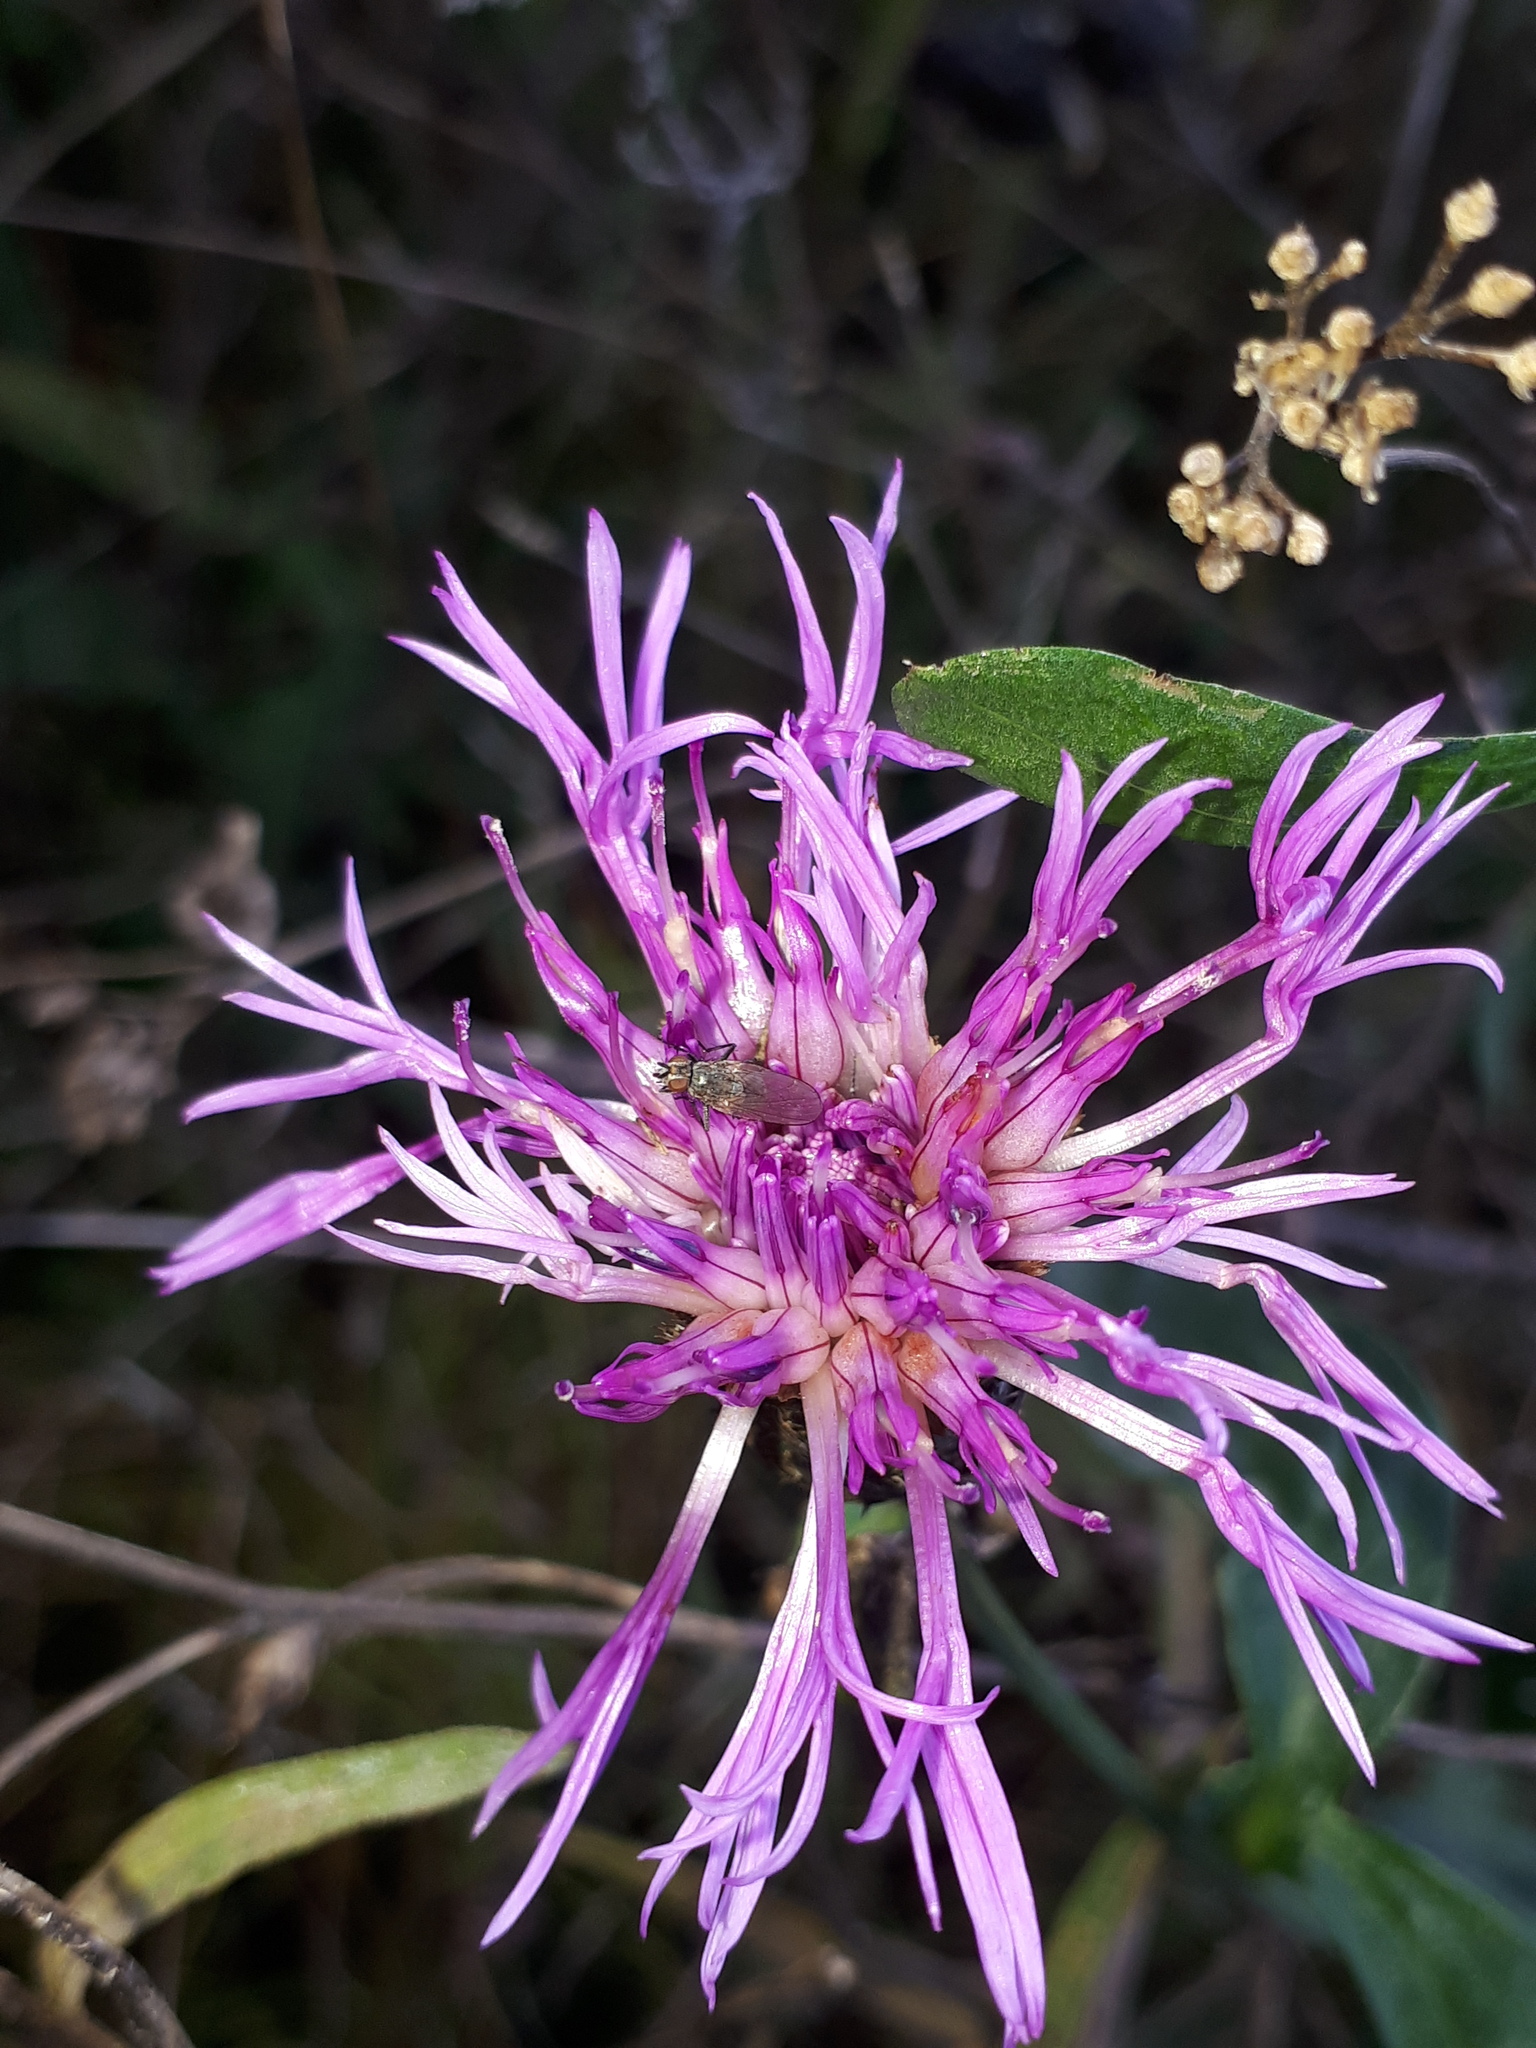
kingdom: Plantae
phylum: Tracheophyta
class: Magnoliopsida
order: Asterales
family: Asteraceae
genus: Centaurea
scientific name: Centaurea scabiosa
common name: Greater knapweed
